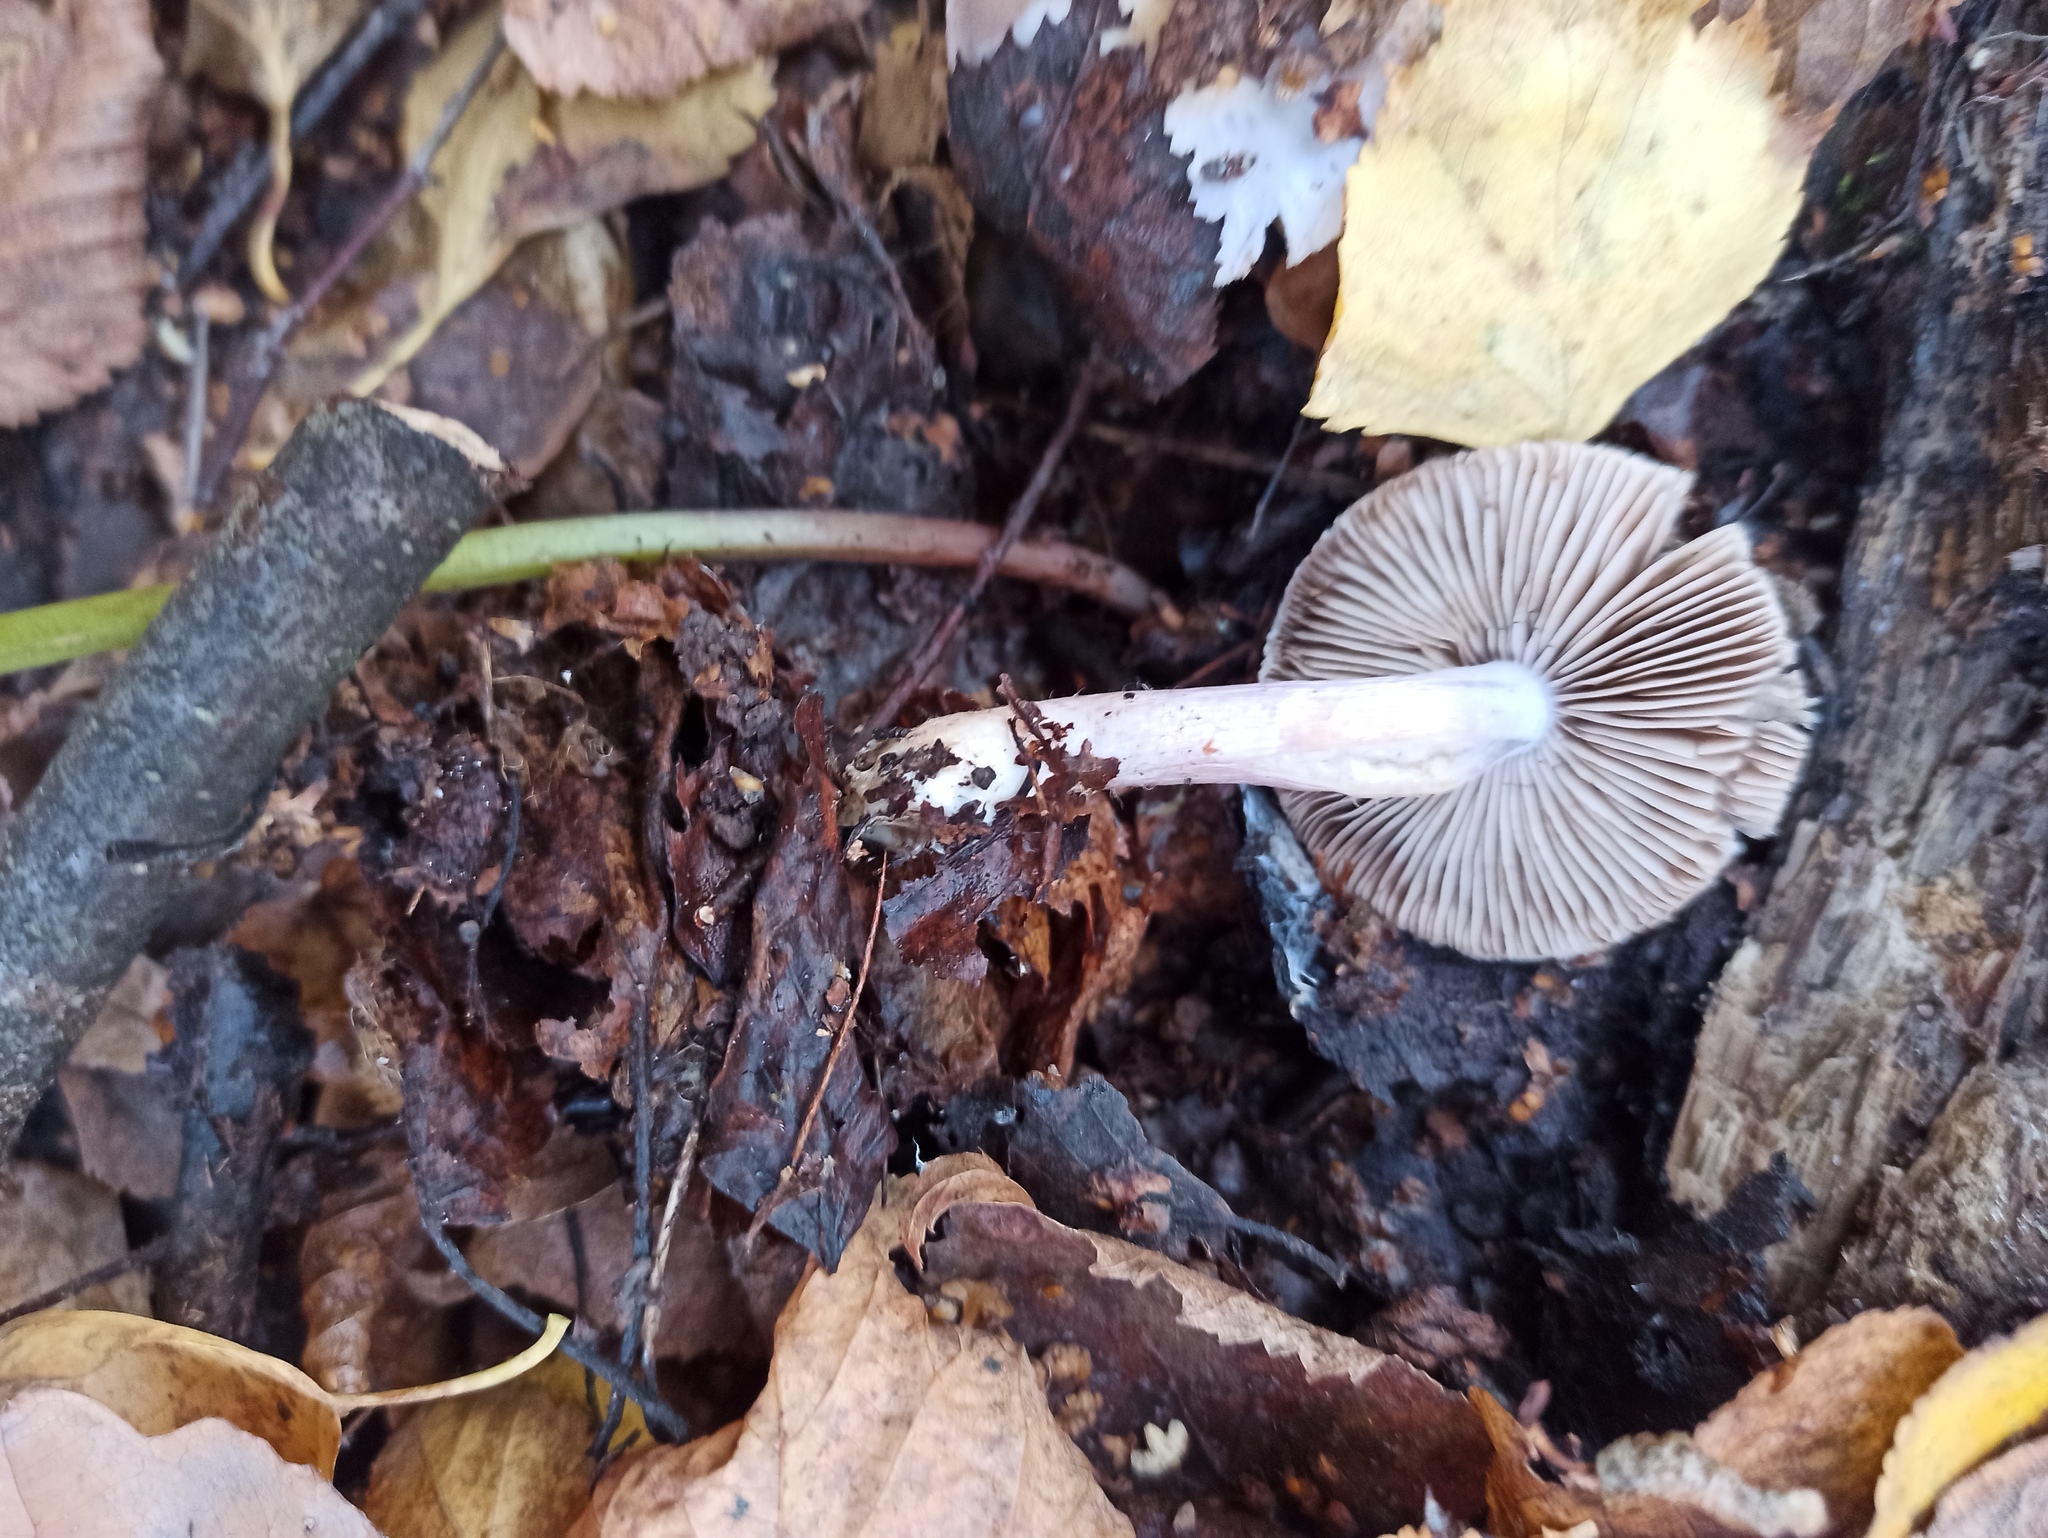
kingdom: Fungi
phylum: Basidiomycota
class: Agaricomycetes
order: Agaricales
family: Inocybaceae
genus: Inocybe
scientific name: Inocybe geophylla
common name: White fibrecap
